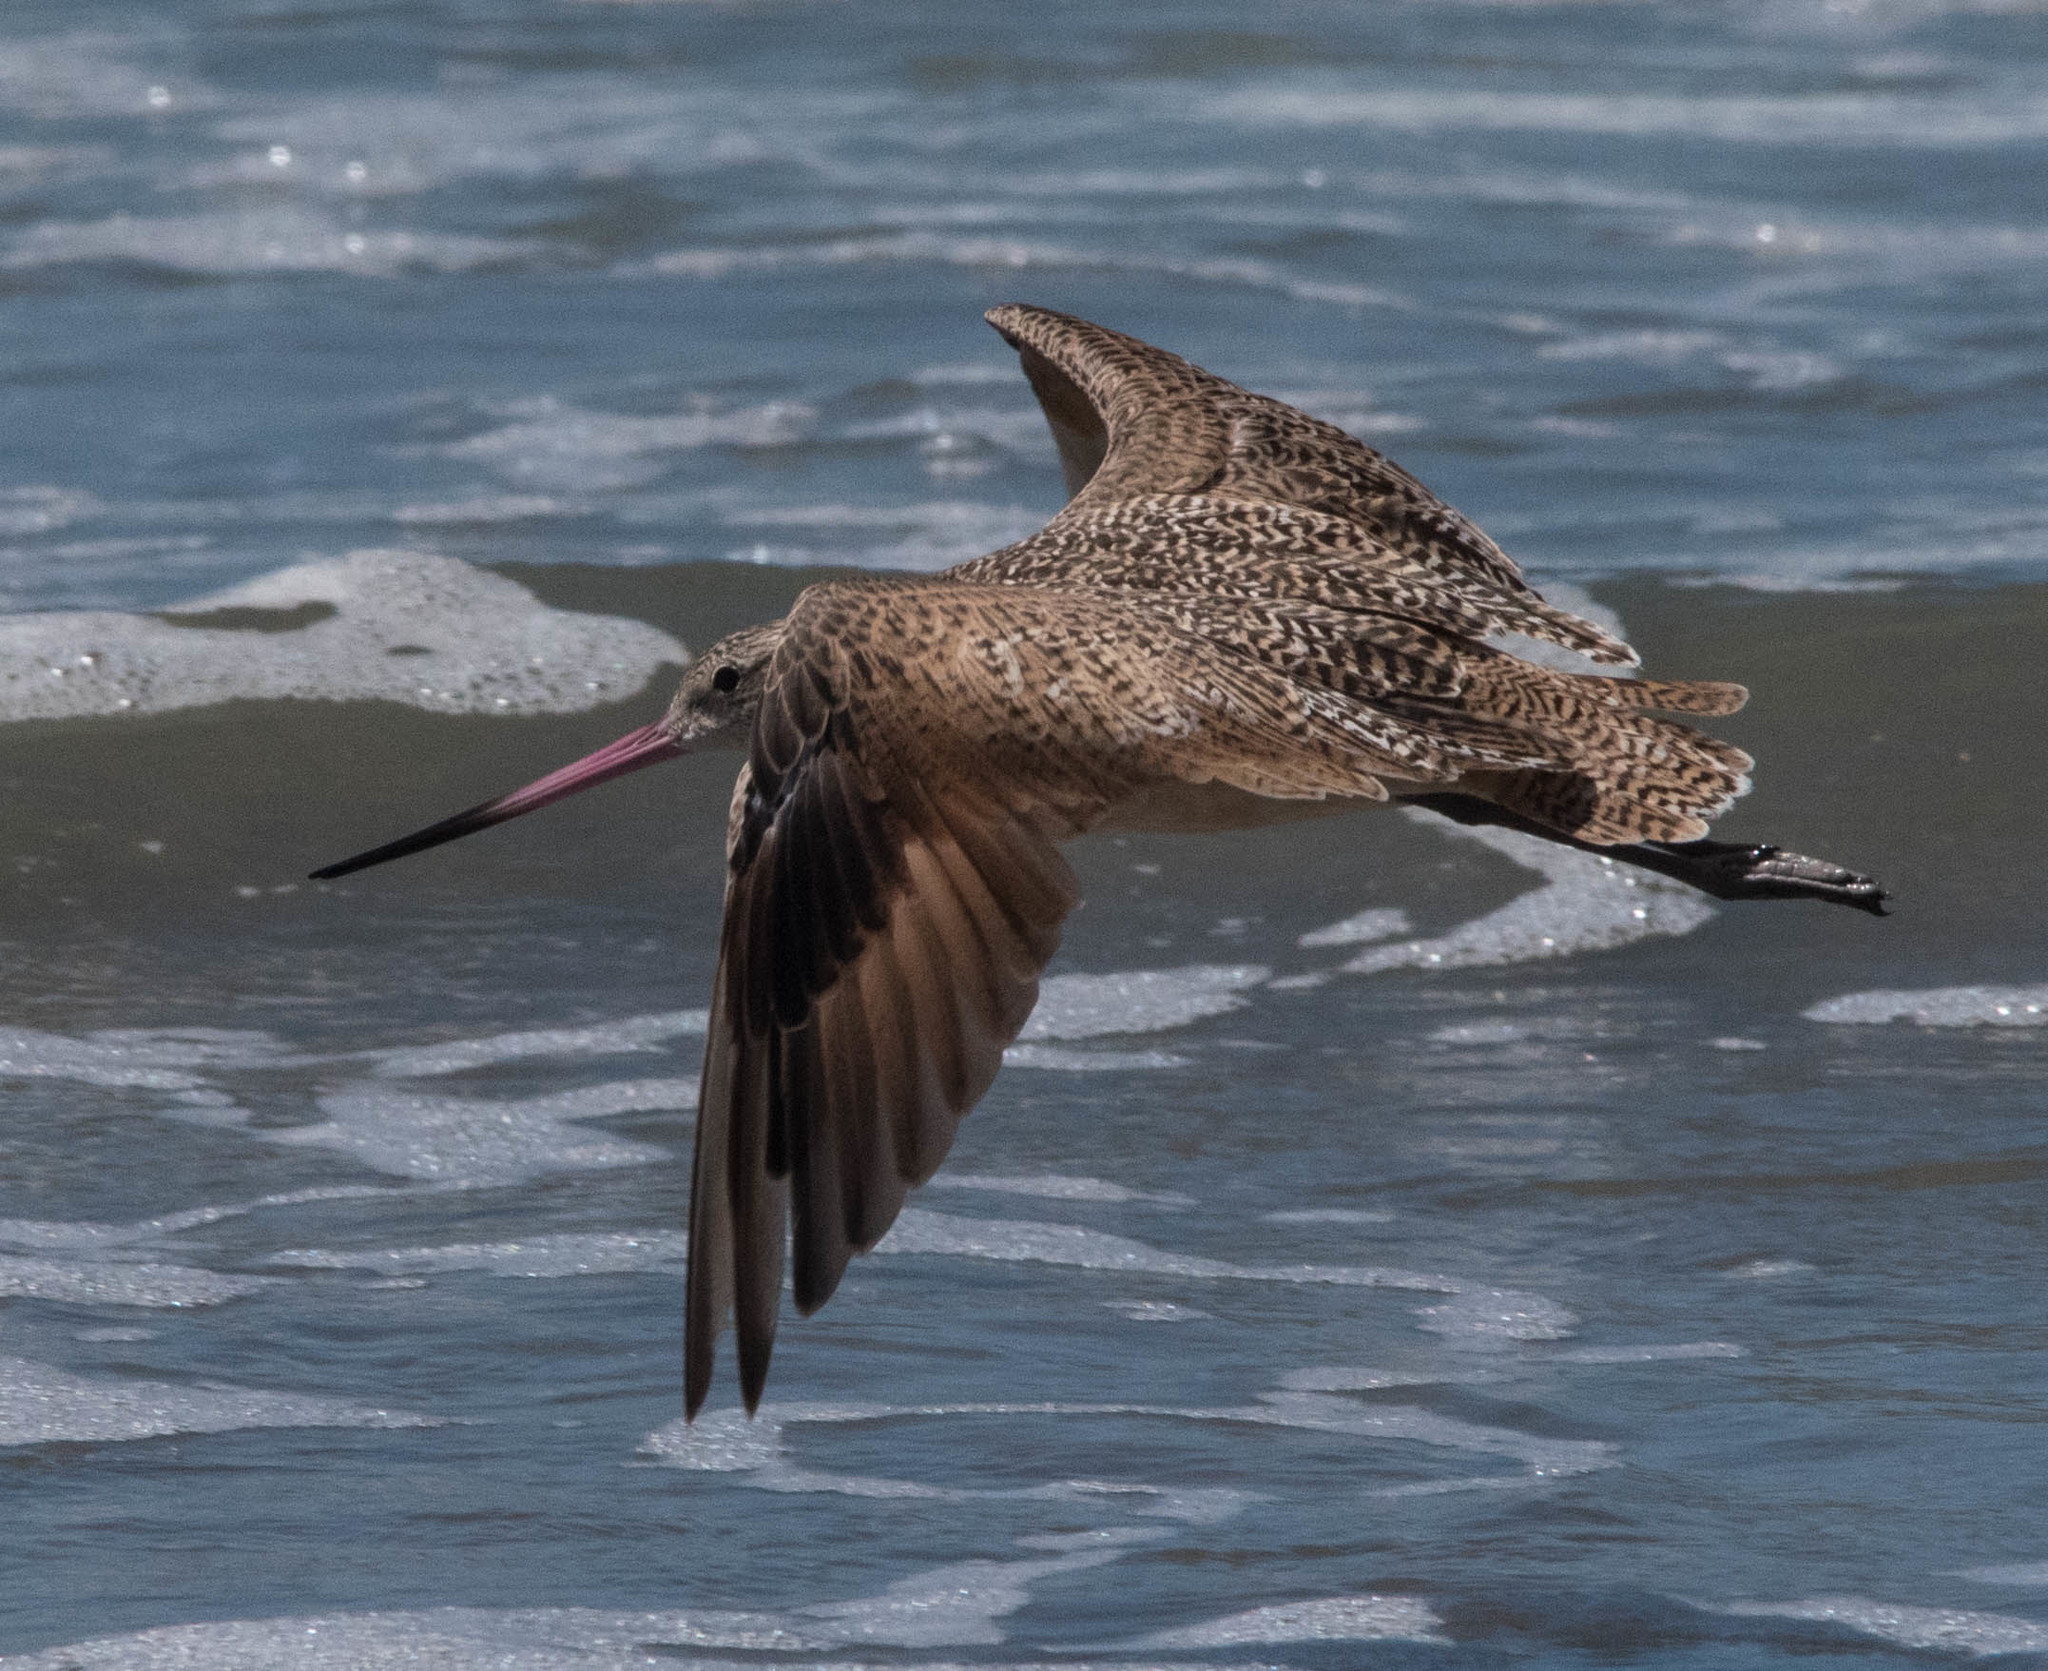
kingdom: Animalia
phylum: Chordata
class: Aves
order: Charadriiformes
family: Scolopacidae
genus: Limosa
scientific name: Limosa fedoa
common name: Marbled godwit
